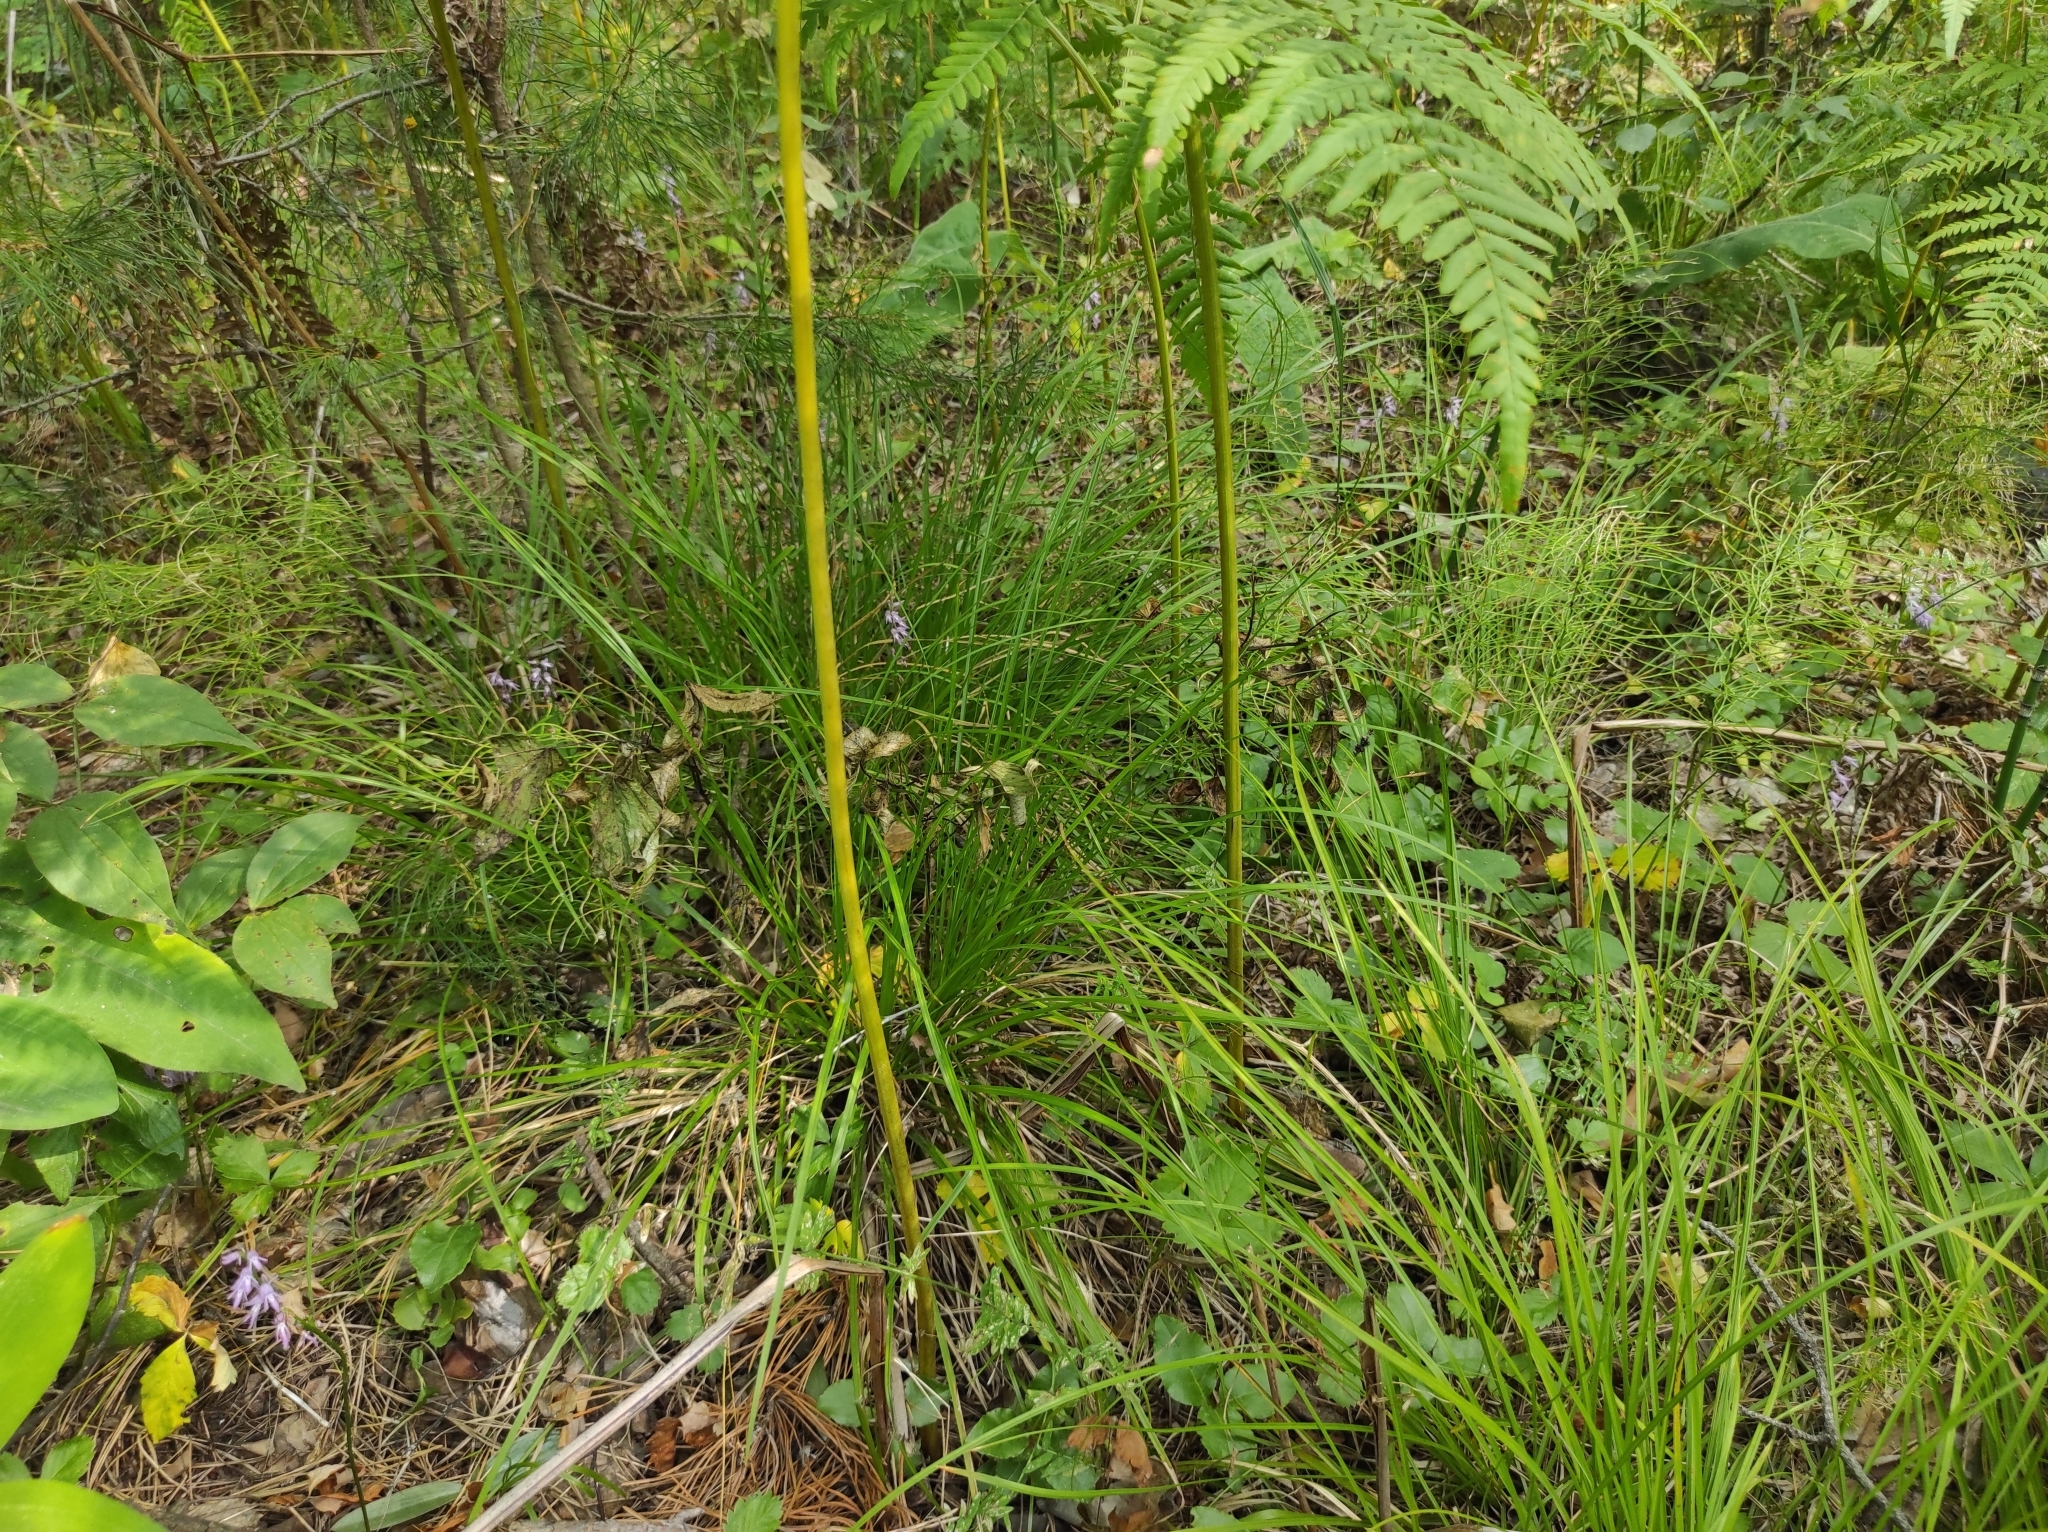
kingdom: Plantae
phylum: Tracheophyta
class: Liliopsida
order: Asparagales
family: Orchidaceae
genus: Hemipilia
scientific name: Hemipilia cucullata
